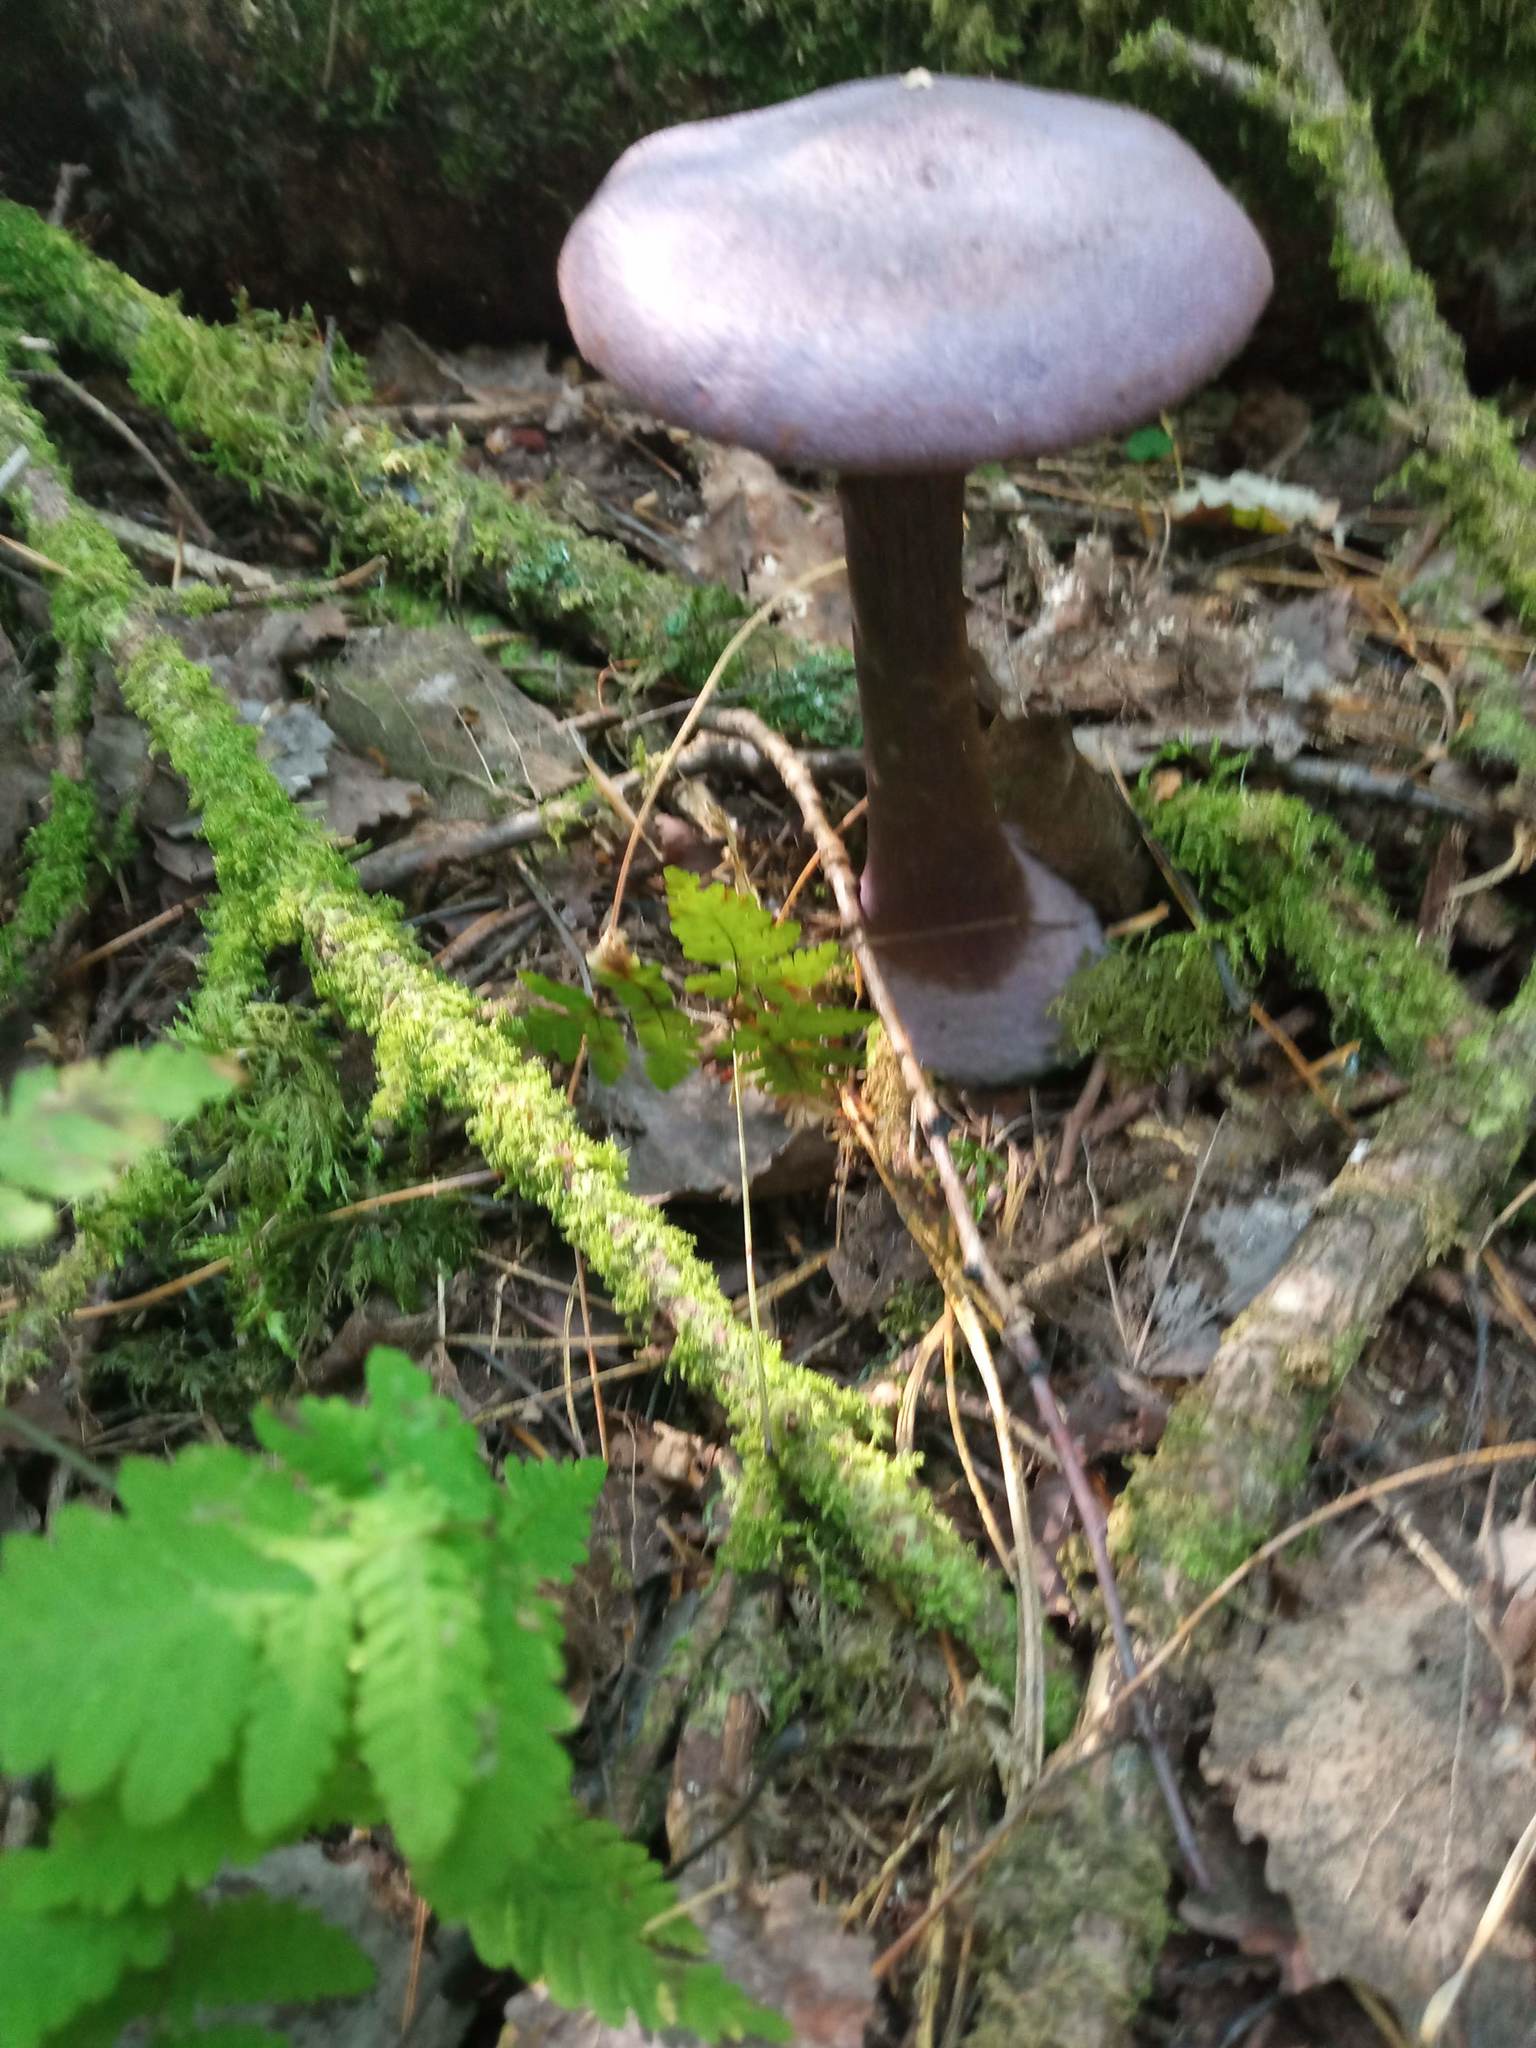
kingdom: Fungi
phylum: Basidiomycota
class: Agaricomycetes
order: Agaricales
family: Cortinariaceae
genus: Cortinarius
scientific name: Cortinarius violaceus
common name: Violet webcap
